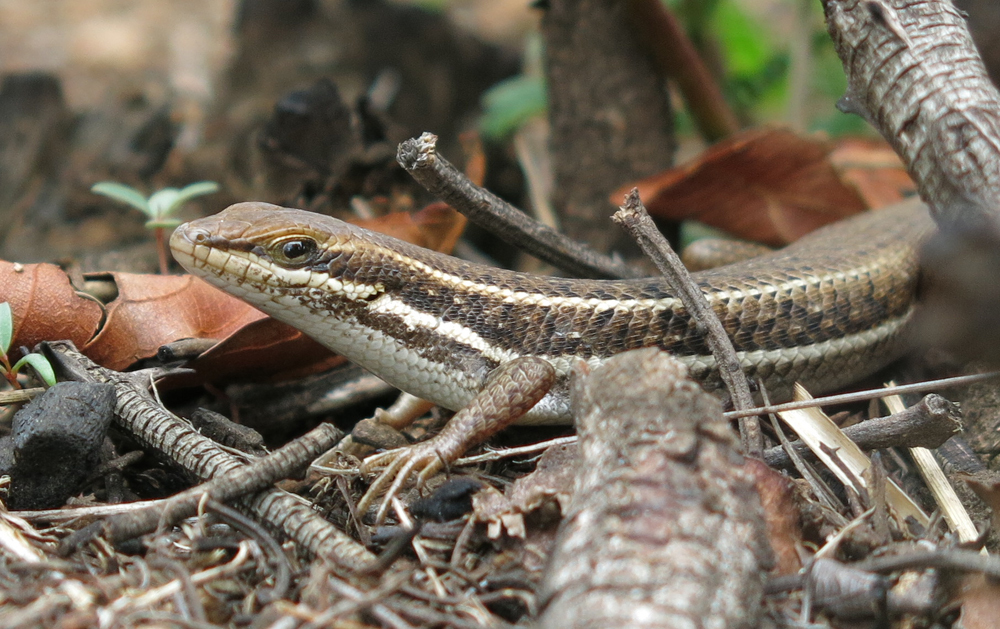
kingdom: Animalia
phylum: Chordata
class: Squamata
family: Scincidae
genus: Trachylepis
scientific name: Trachylepis varia
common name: Eastern variable skink
